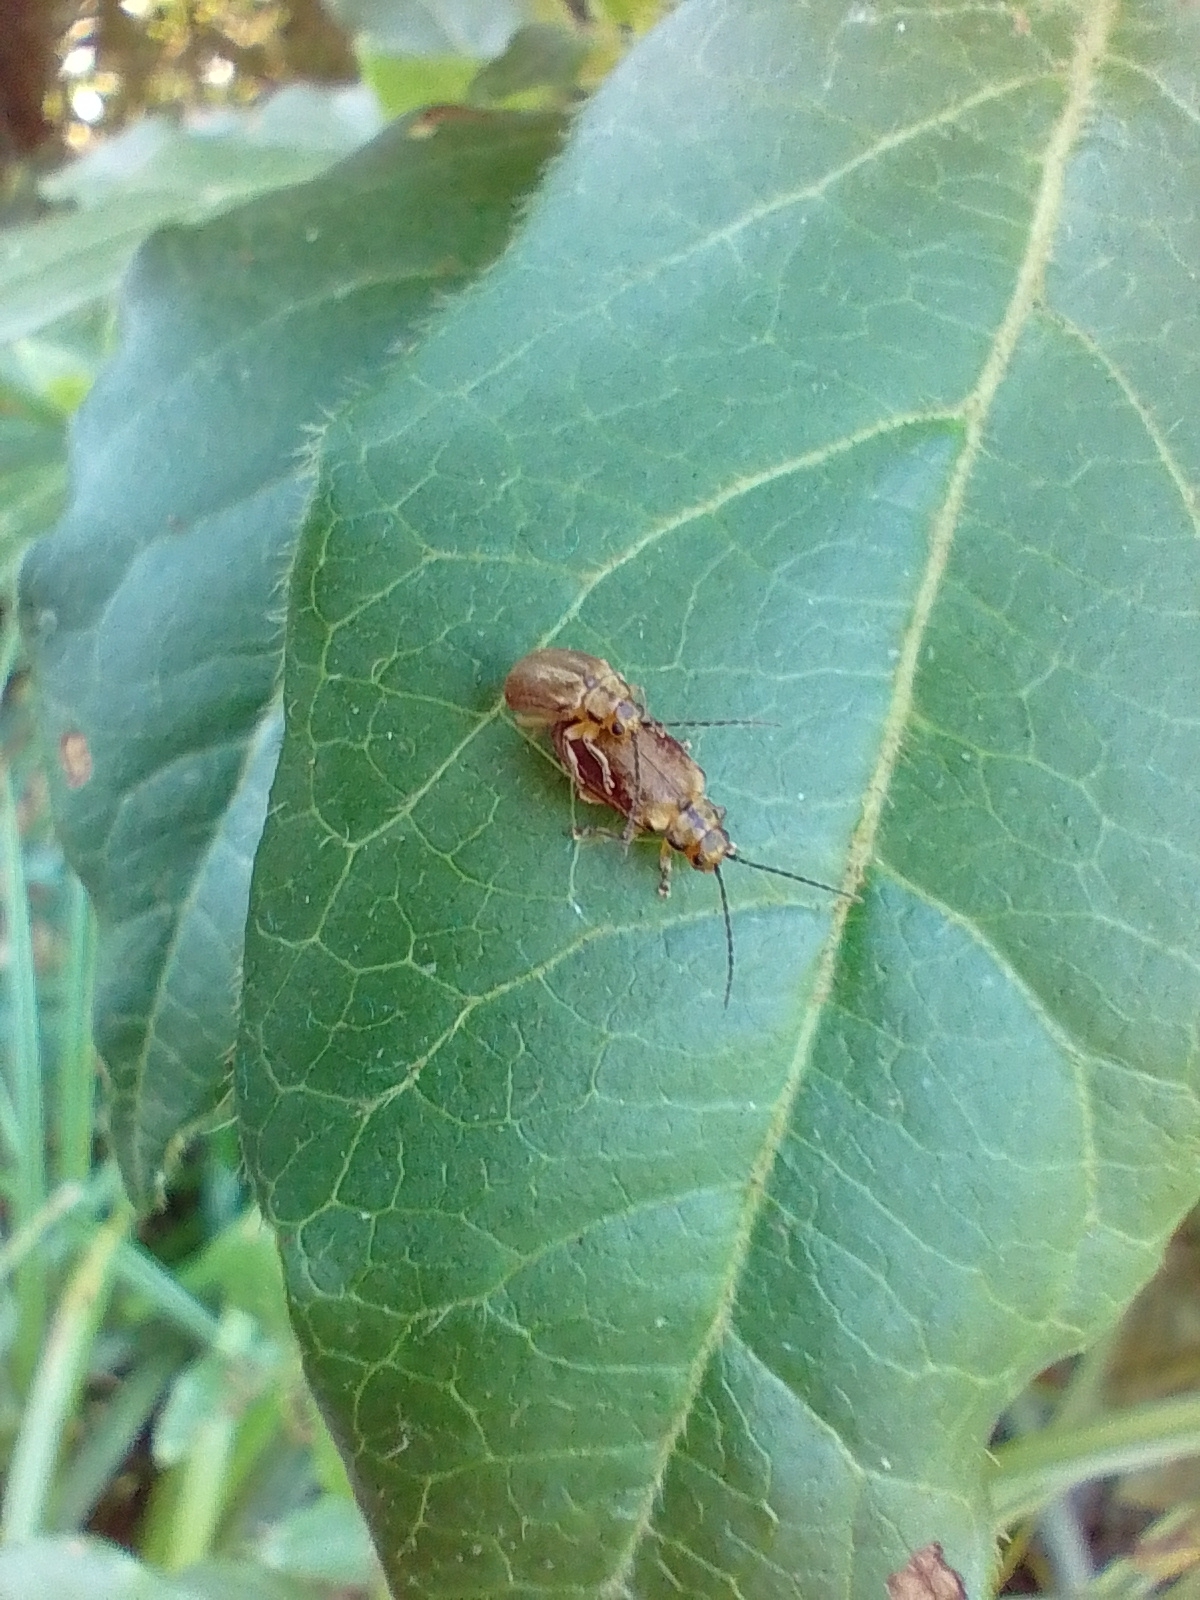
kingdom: Animalia
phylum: Arthropoda
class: Insecta
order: Coleoptera
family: Chrysomelidae
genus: Pyrrhalta
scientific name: Pyrrhalta viburni
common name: Guelder-rose leaf beetle
